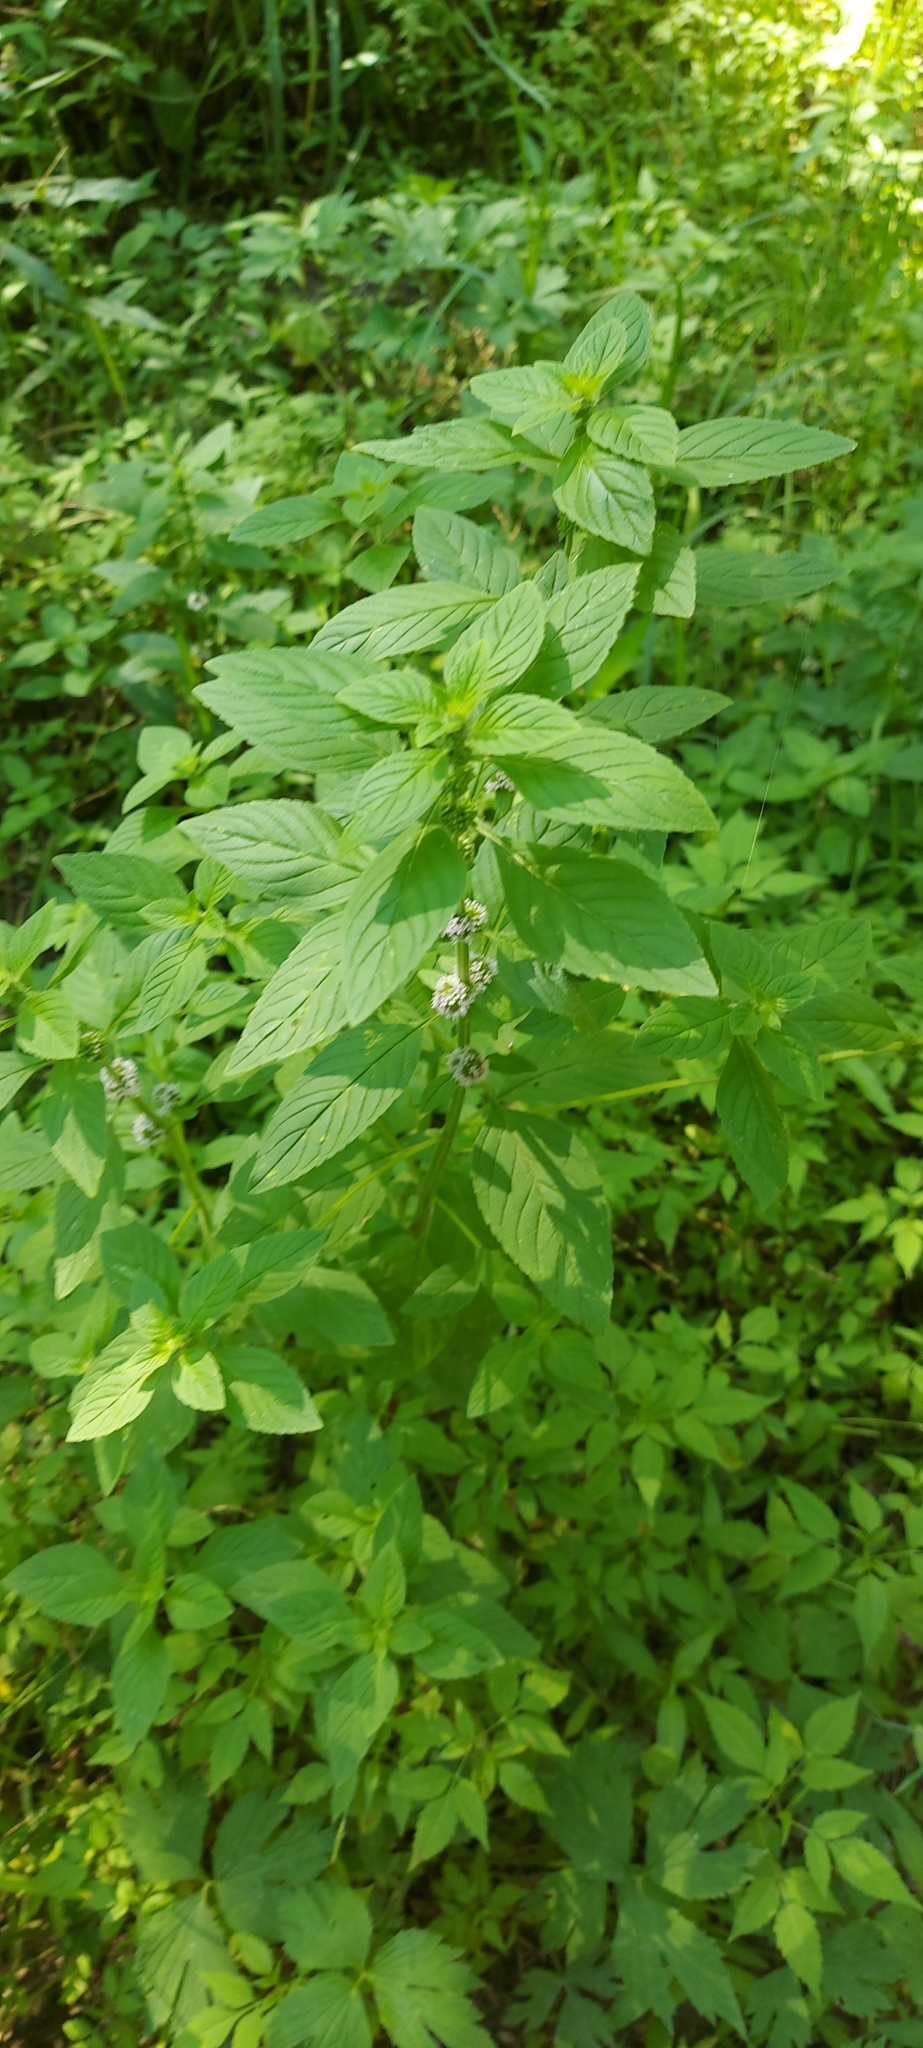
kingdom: Plantae
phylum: Tracheophyta
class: Magnoliopsida
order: Lamiales
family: Lamiaceae
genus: Mentha
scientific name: Mentha arvensis
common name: Corn mint
